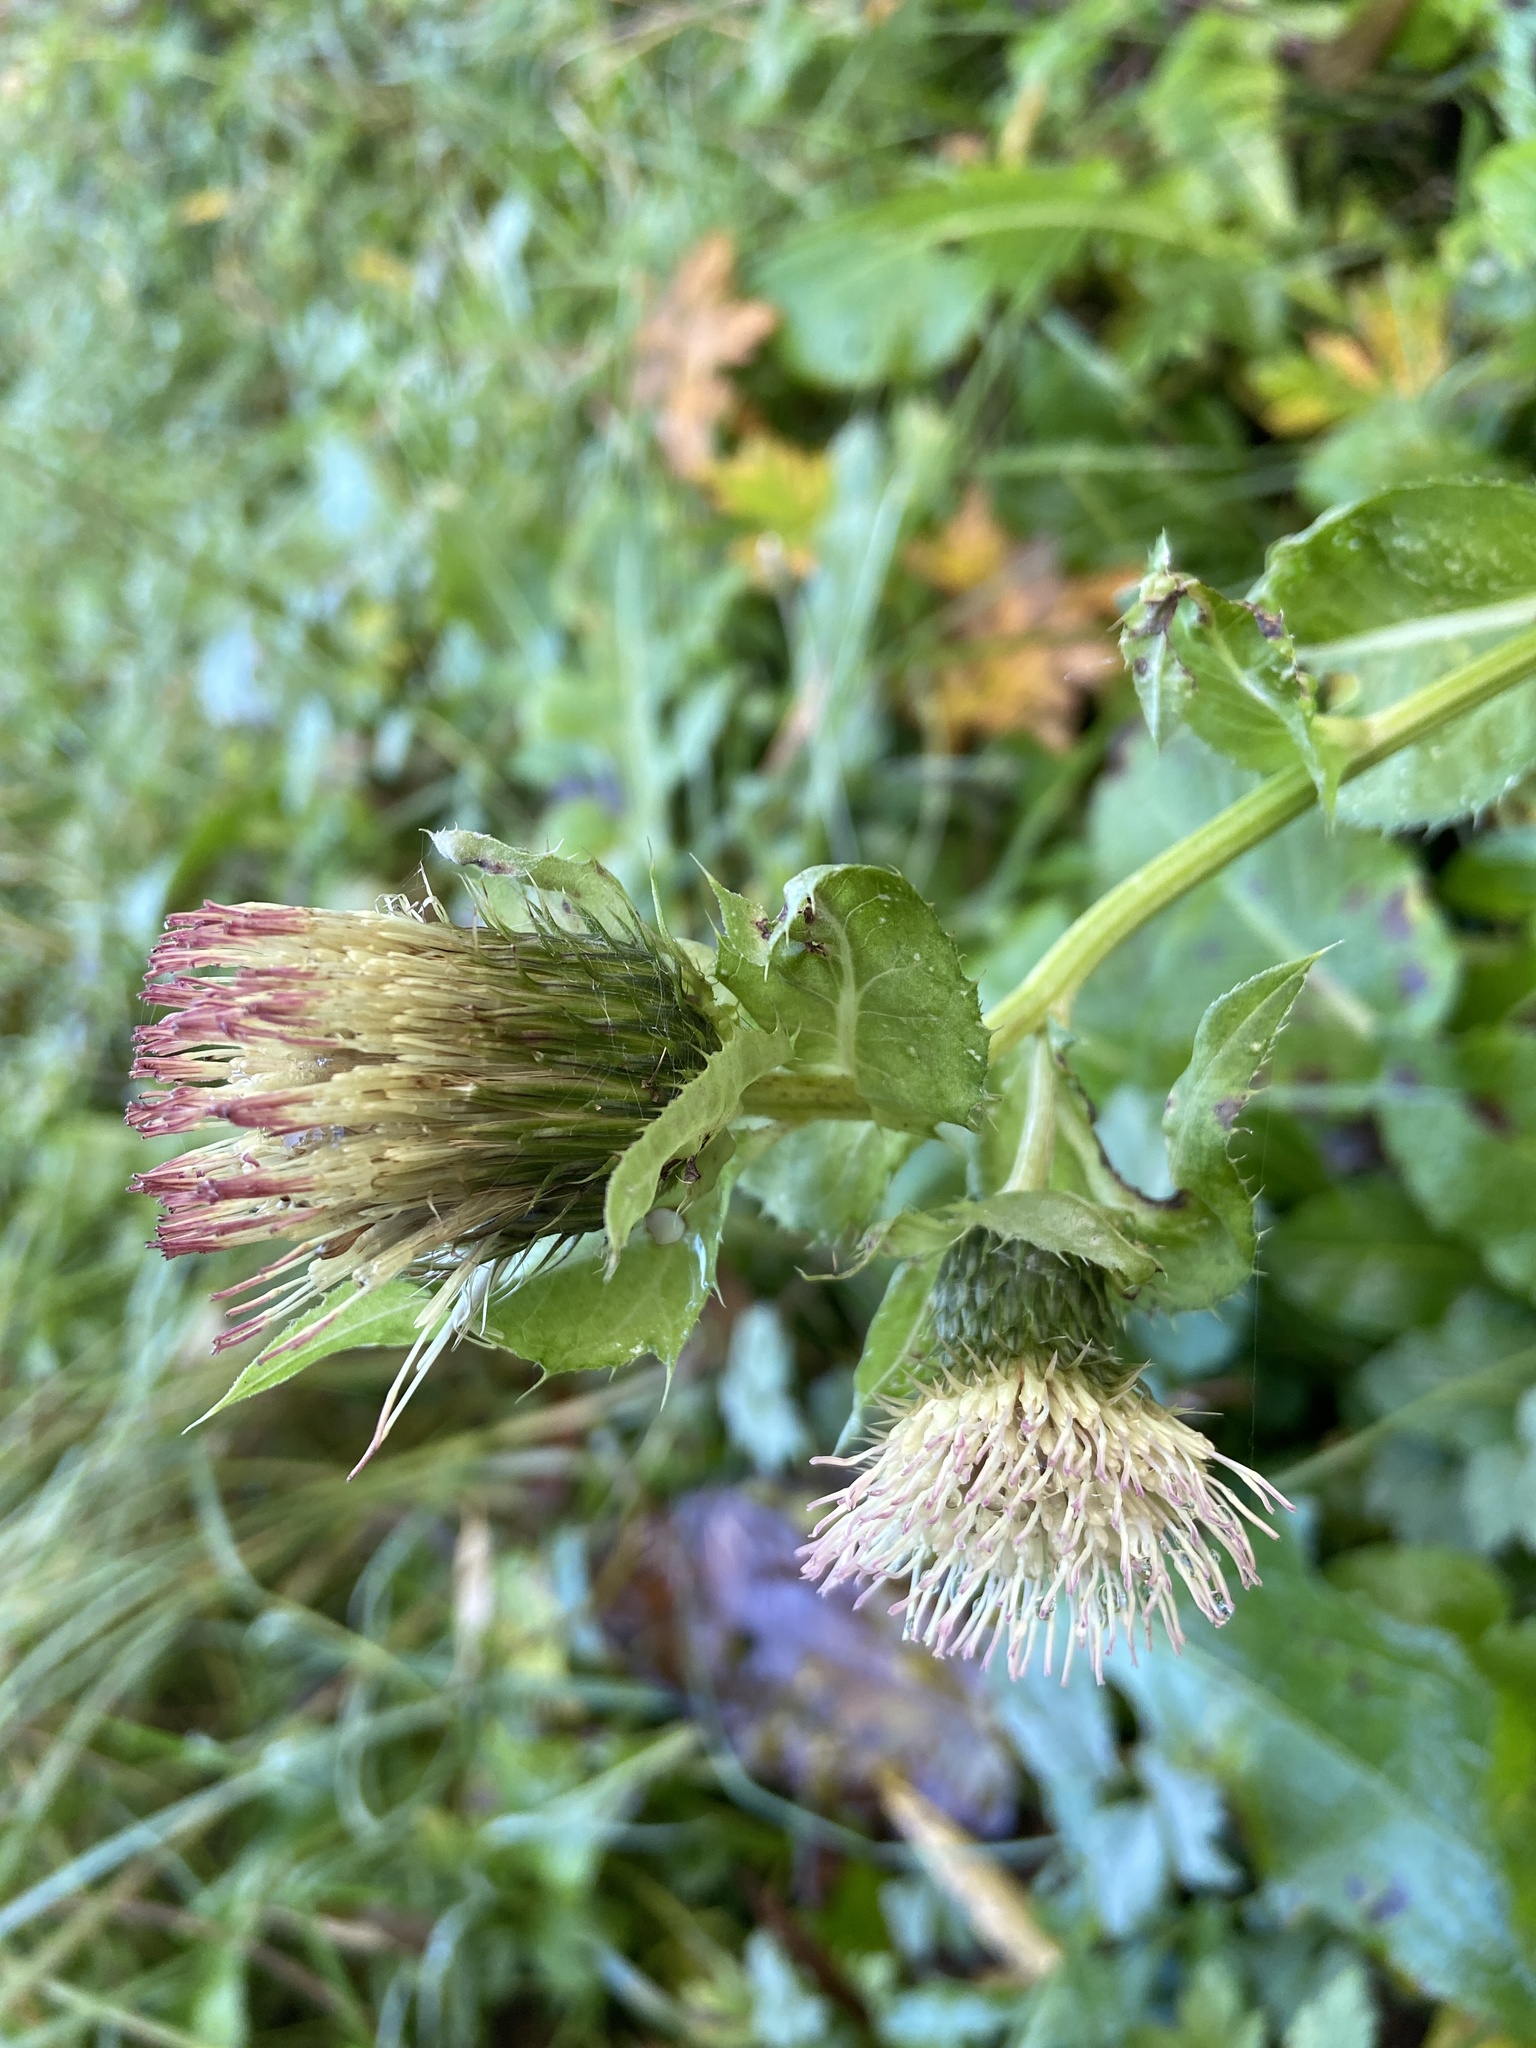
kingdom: Plantae
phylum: Tracheophyta
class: Magnoliopsida
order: Asterales
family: Asteraceae
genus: Cirsium
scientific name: Cirsium oleraceum
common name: Cabbage thistle
